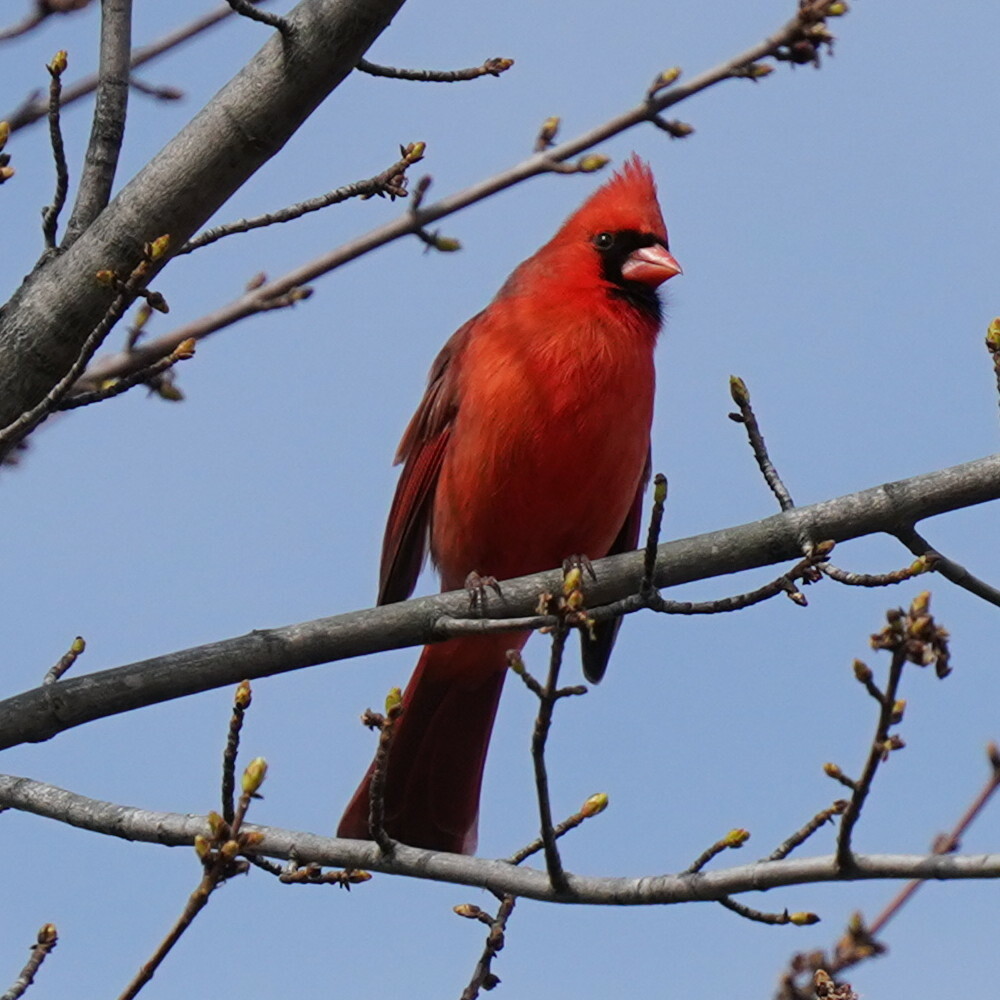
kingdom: Animalia
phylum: Chordata
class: Aves
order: Passeriformes
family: Cardinalidae
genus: Cardinalis
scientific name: Cardinalis cardinalis
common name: Northern cardinal
